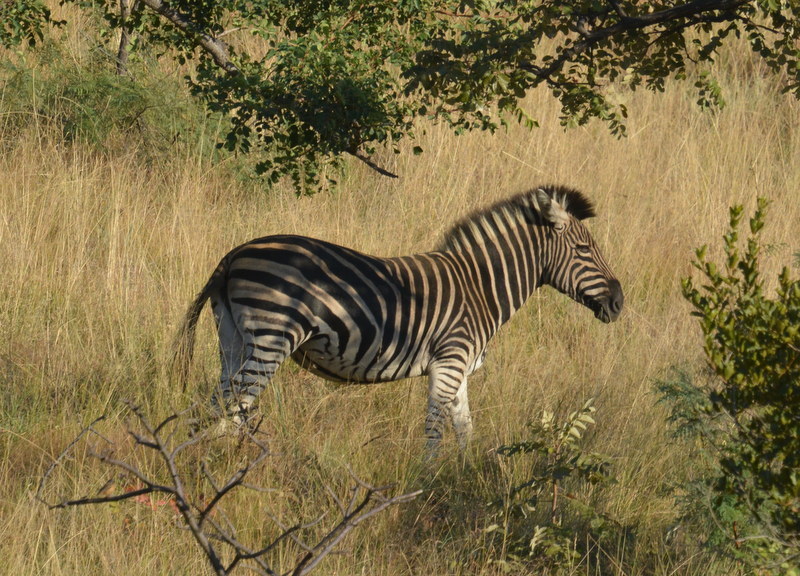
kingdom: Animalia
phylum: Chordata
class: Mammalia
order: Perissodactyla
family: Equidae
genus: Equus
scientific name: Equus quagga
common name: Plains zebra
